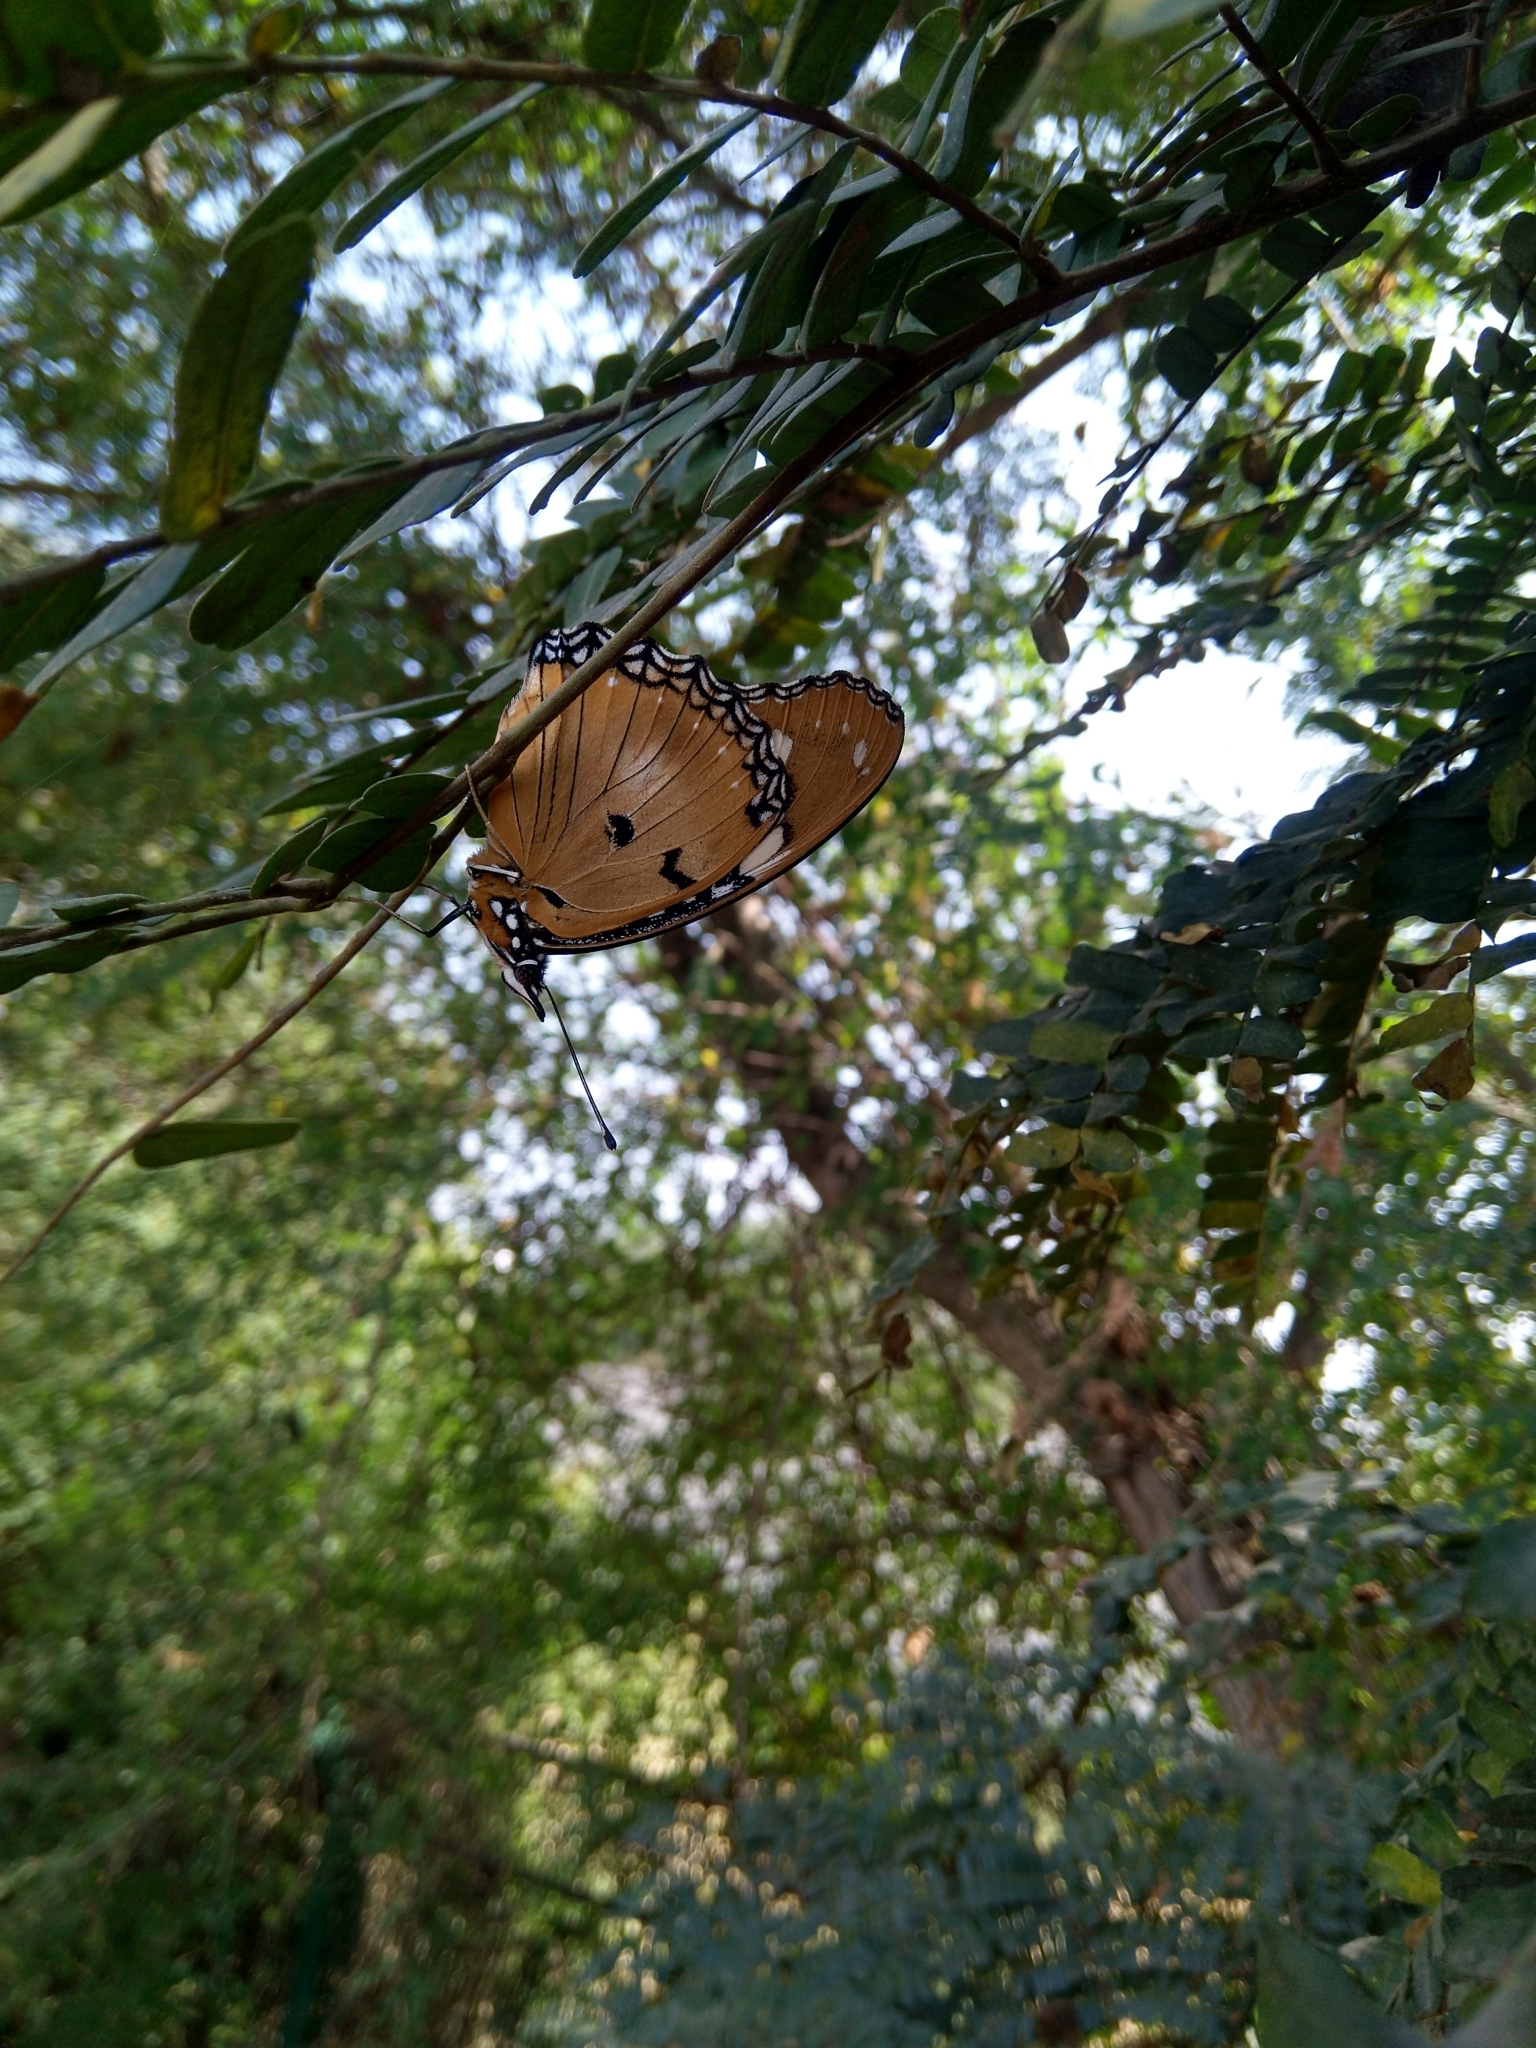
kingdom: Animalia
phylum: Arthropoda
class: Insecta
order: Lepidoptera
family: Nymphalidae
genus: Hypolimnas
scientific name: Hypolimnas misippus
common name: False plain tiger
